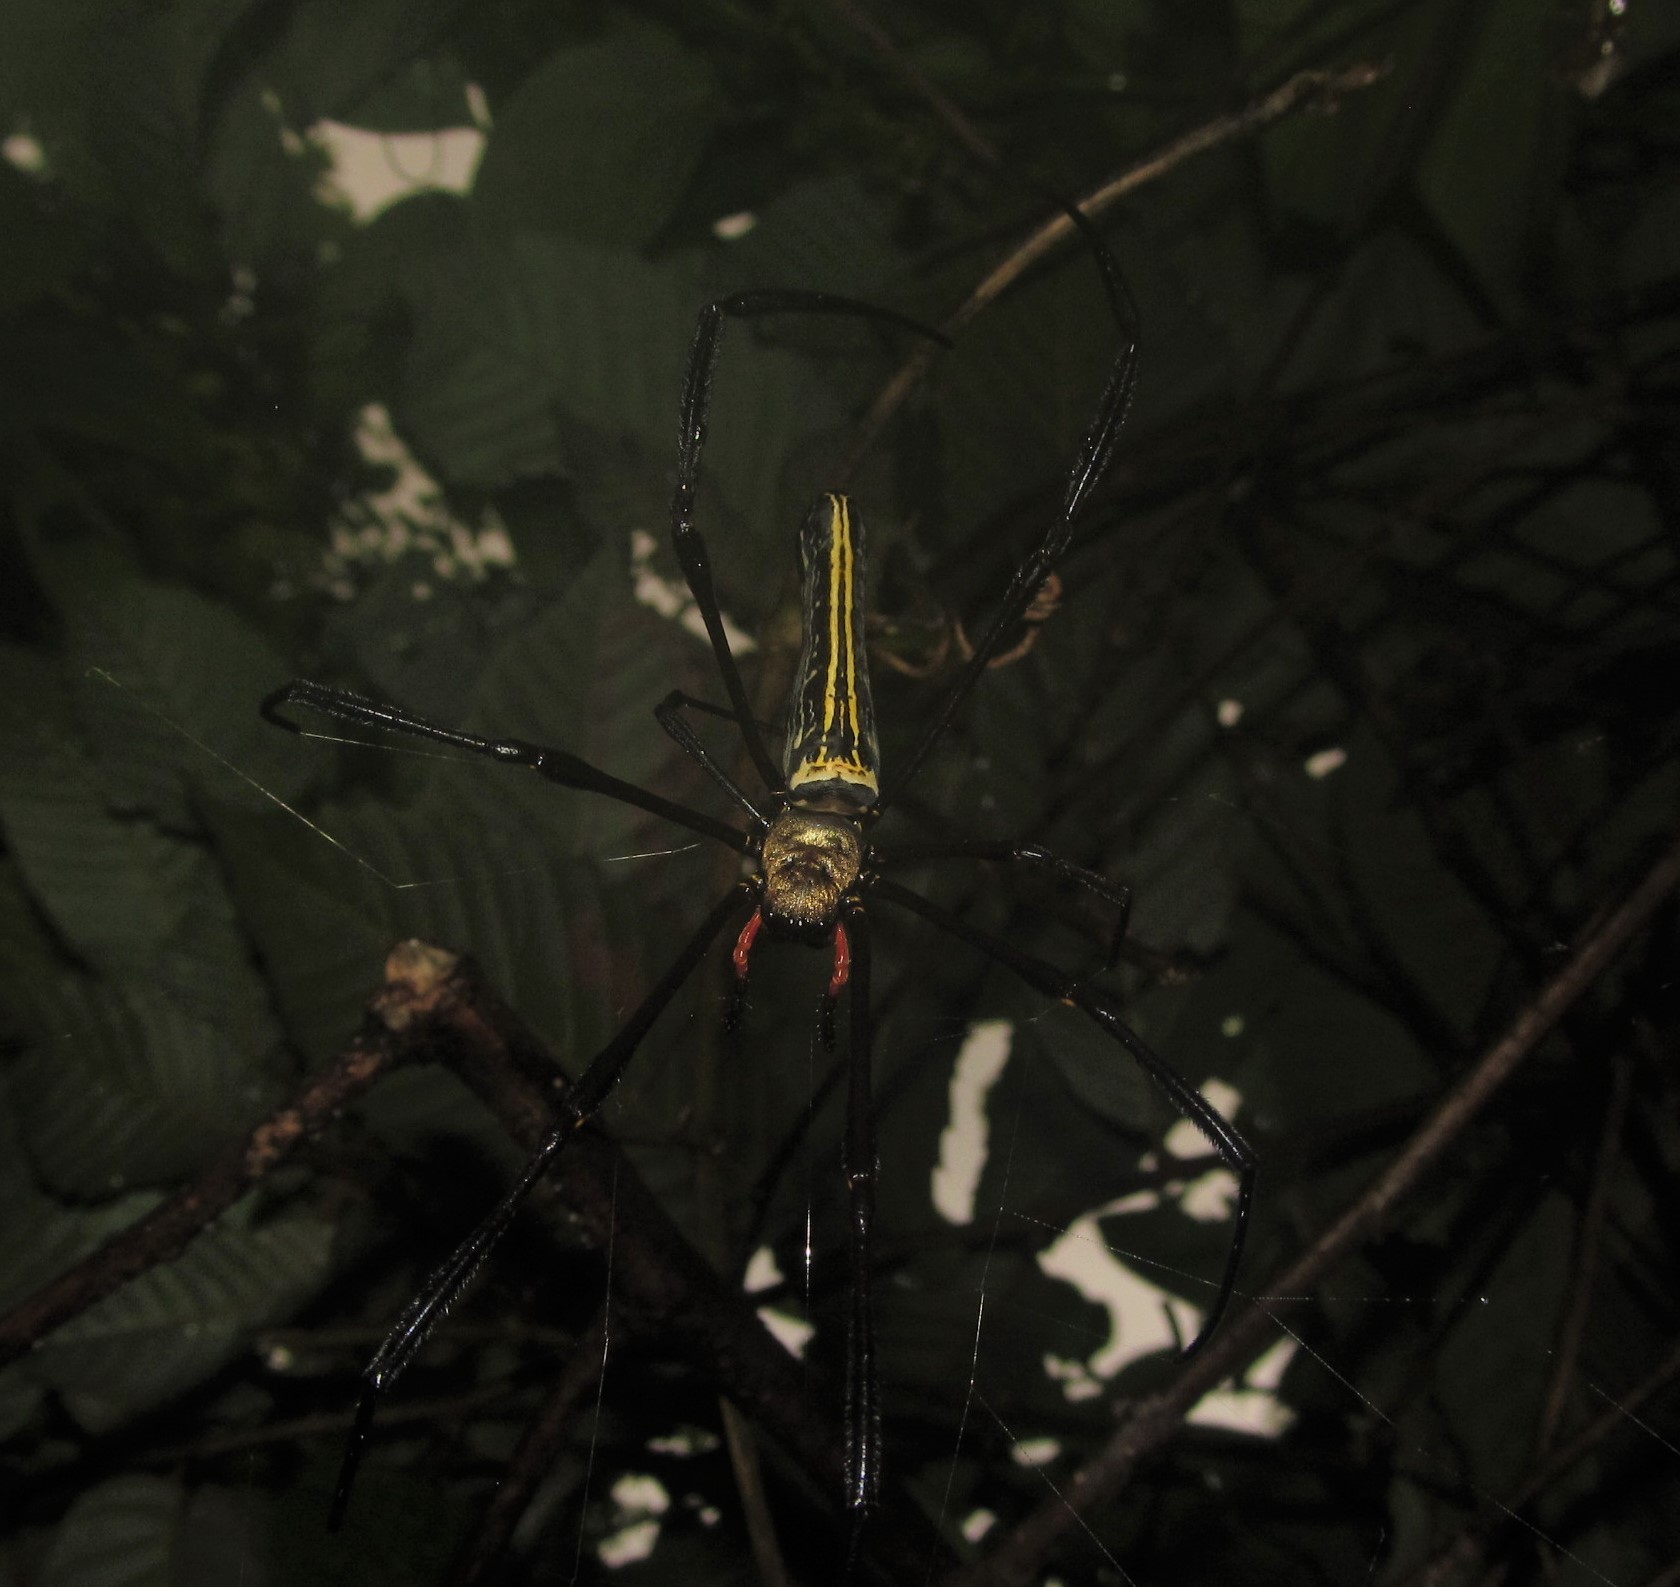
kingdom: Animalia
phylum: Arthropoda
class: Arachnida
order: Araneae
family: Araneidae
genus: Nephila
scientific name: Nephila pilipes
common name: Giant golden orb weaver
